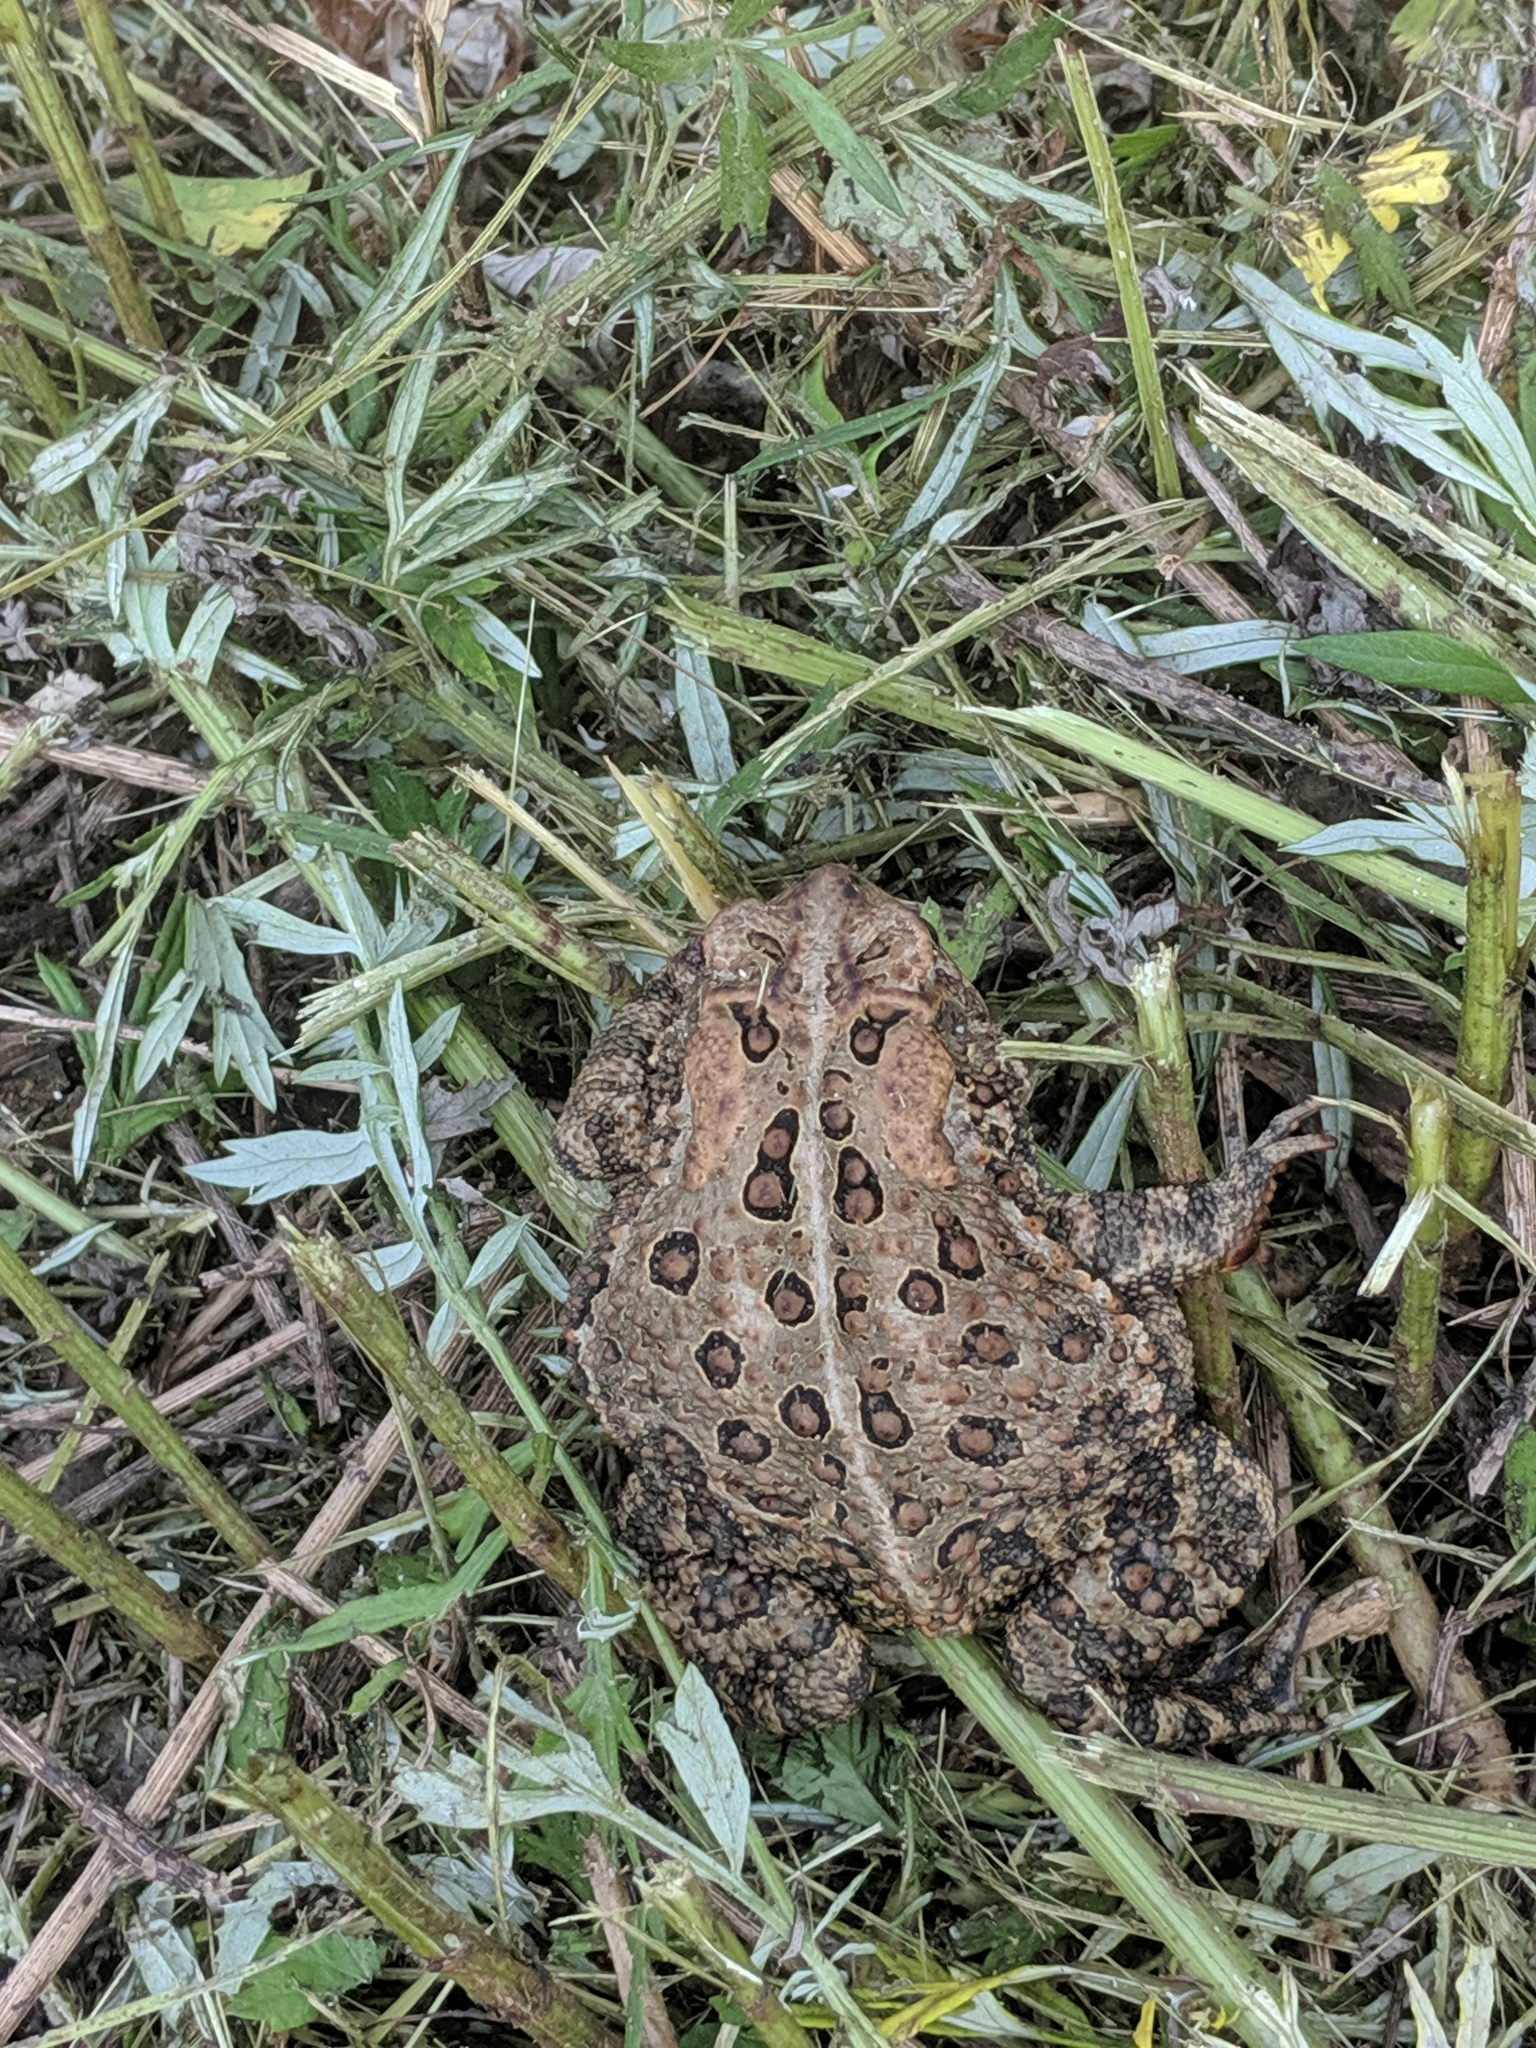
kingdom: Animalia
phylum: Chordata
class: Amphibia
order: Anura
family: Bufonidae
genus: Anaxyrus
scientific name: Anaxyrus americanus
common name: American toad
